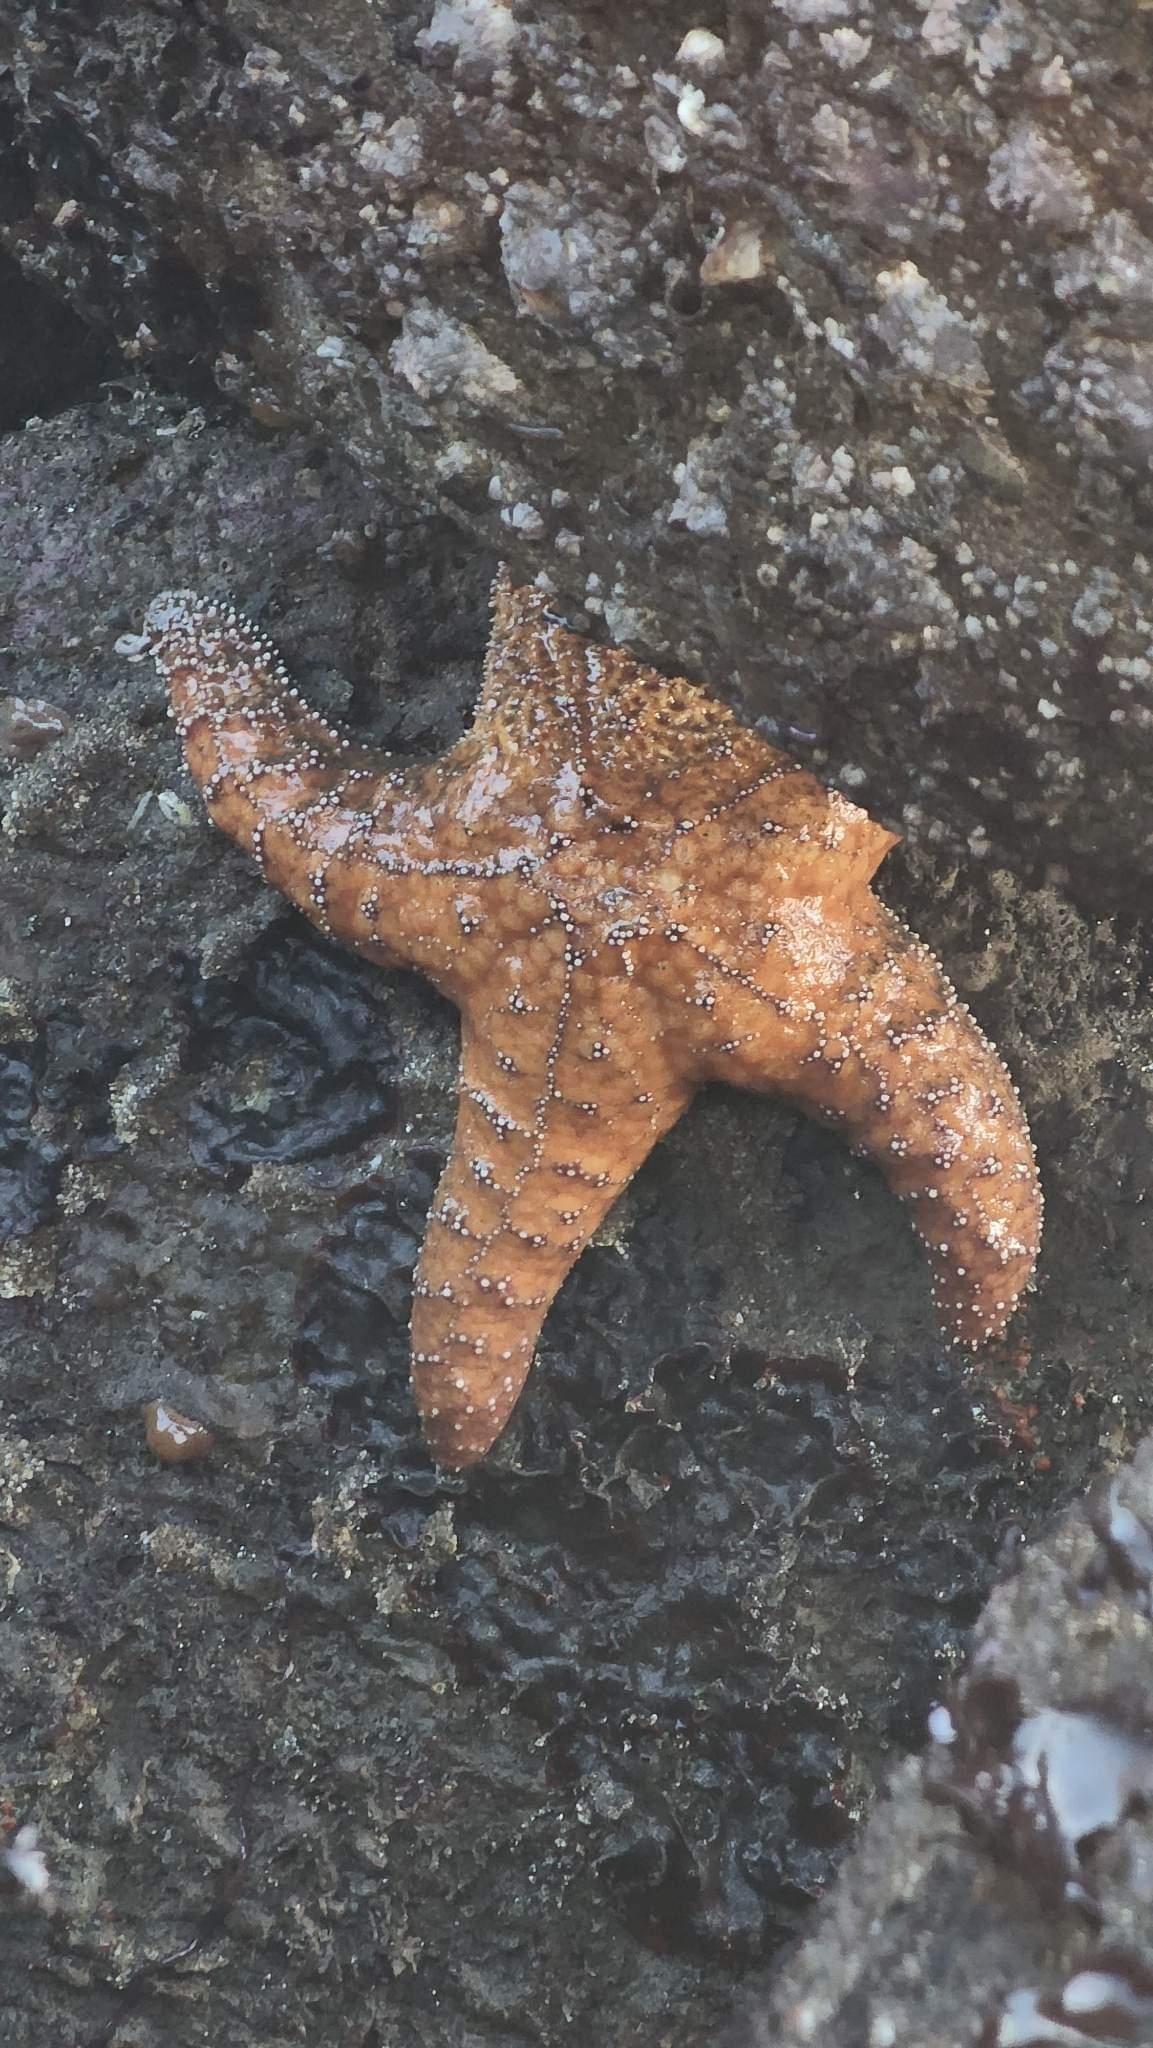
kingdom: Animalia
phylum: Echinodermata
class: Asteroidea
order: Forcipulatida
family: Asteriidae
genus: Pisaster
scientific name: Pisaster ochraceus
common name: Ochre stars
